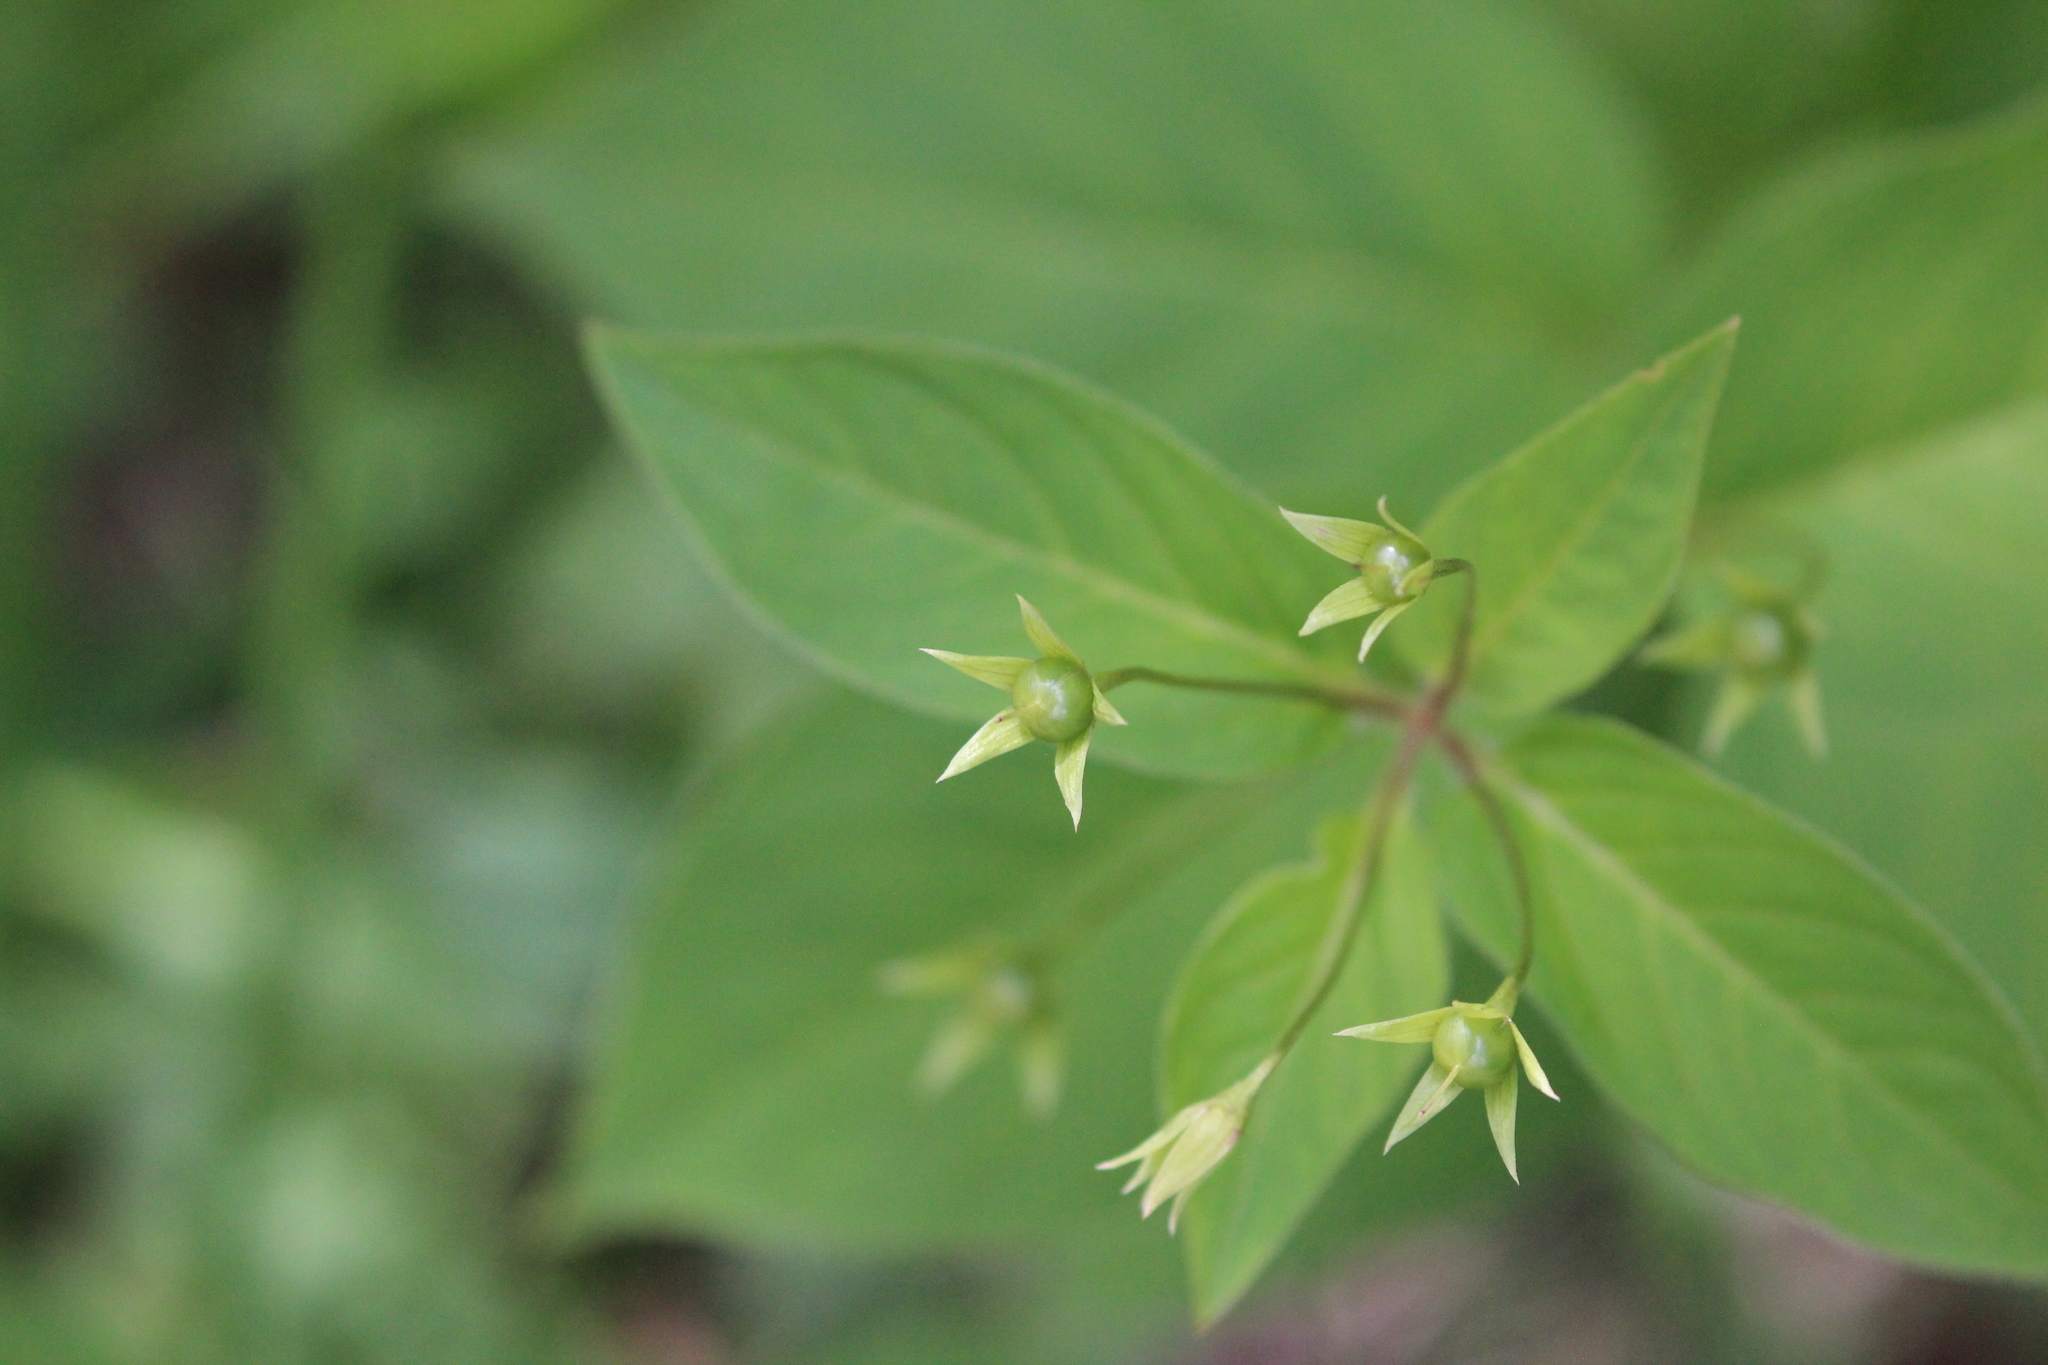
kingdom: Plantae
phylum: Tracheophyta
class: Magnoliopsida
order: Ericales
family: Primulaceae
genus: Lysimachia
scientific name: Lysimachia ciliata
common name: Fringed loosestrife
